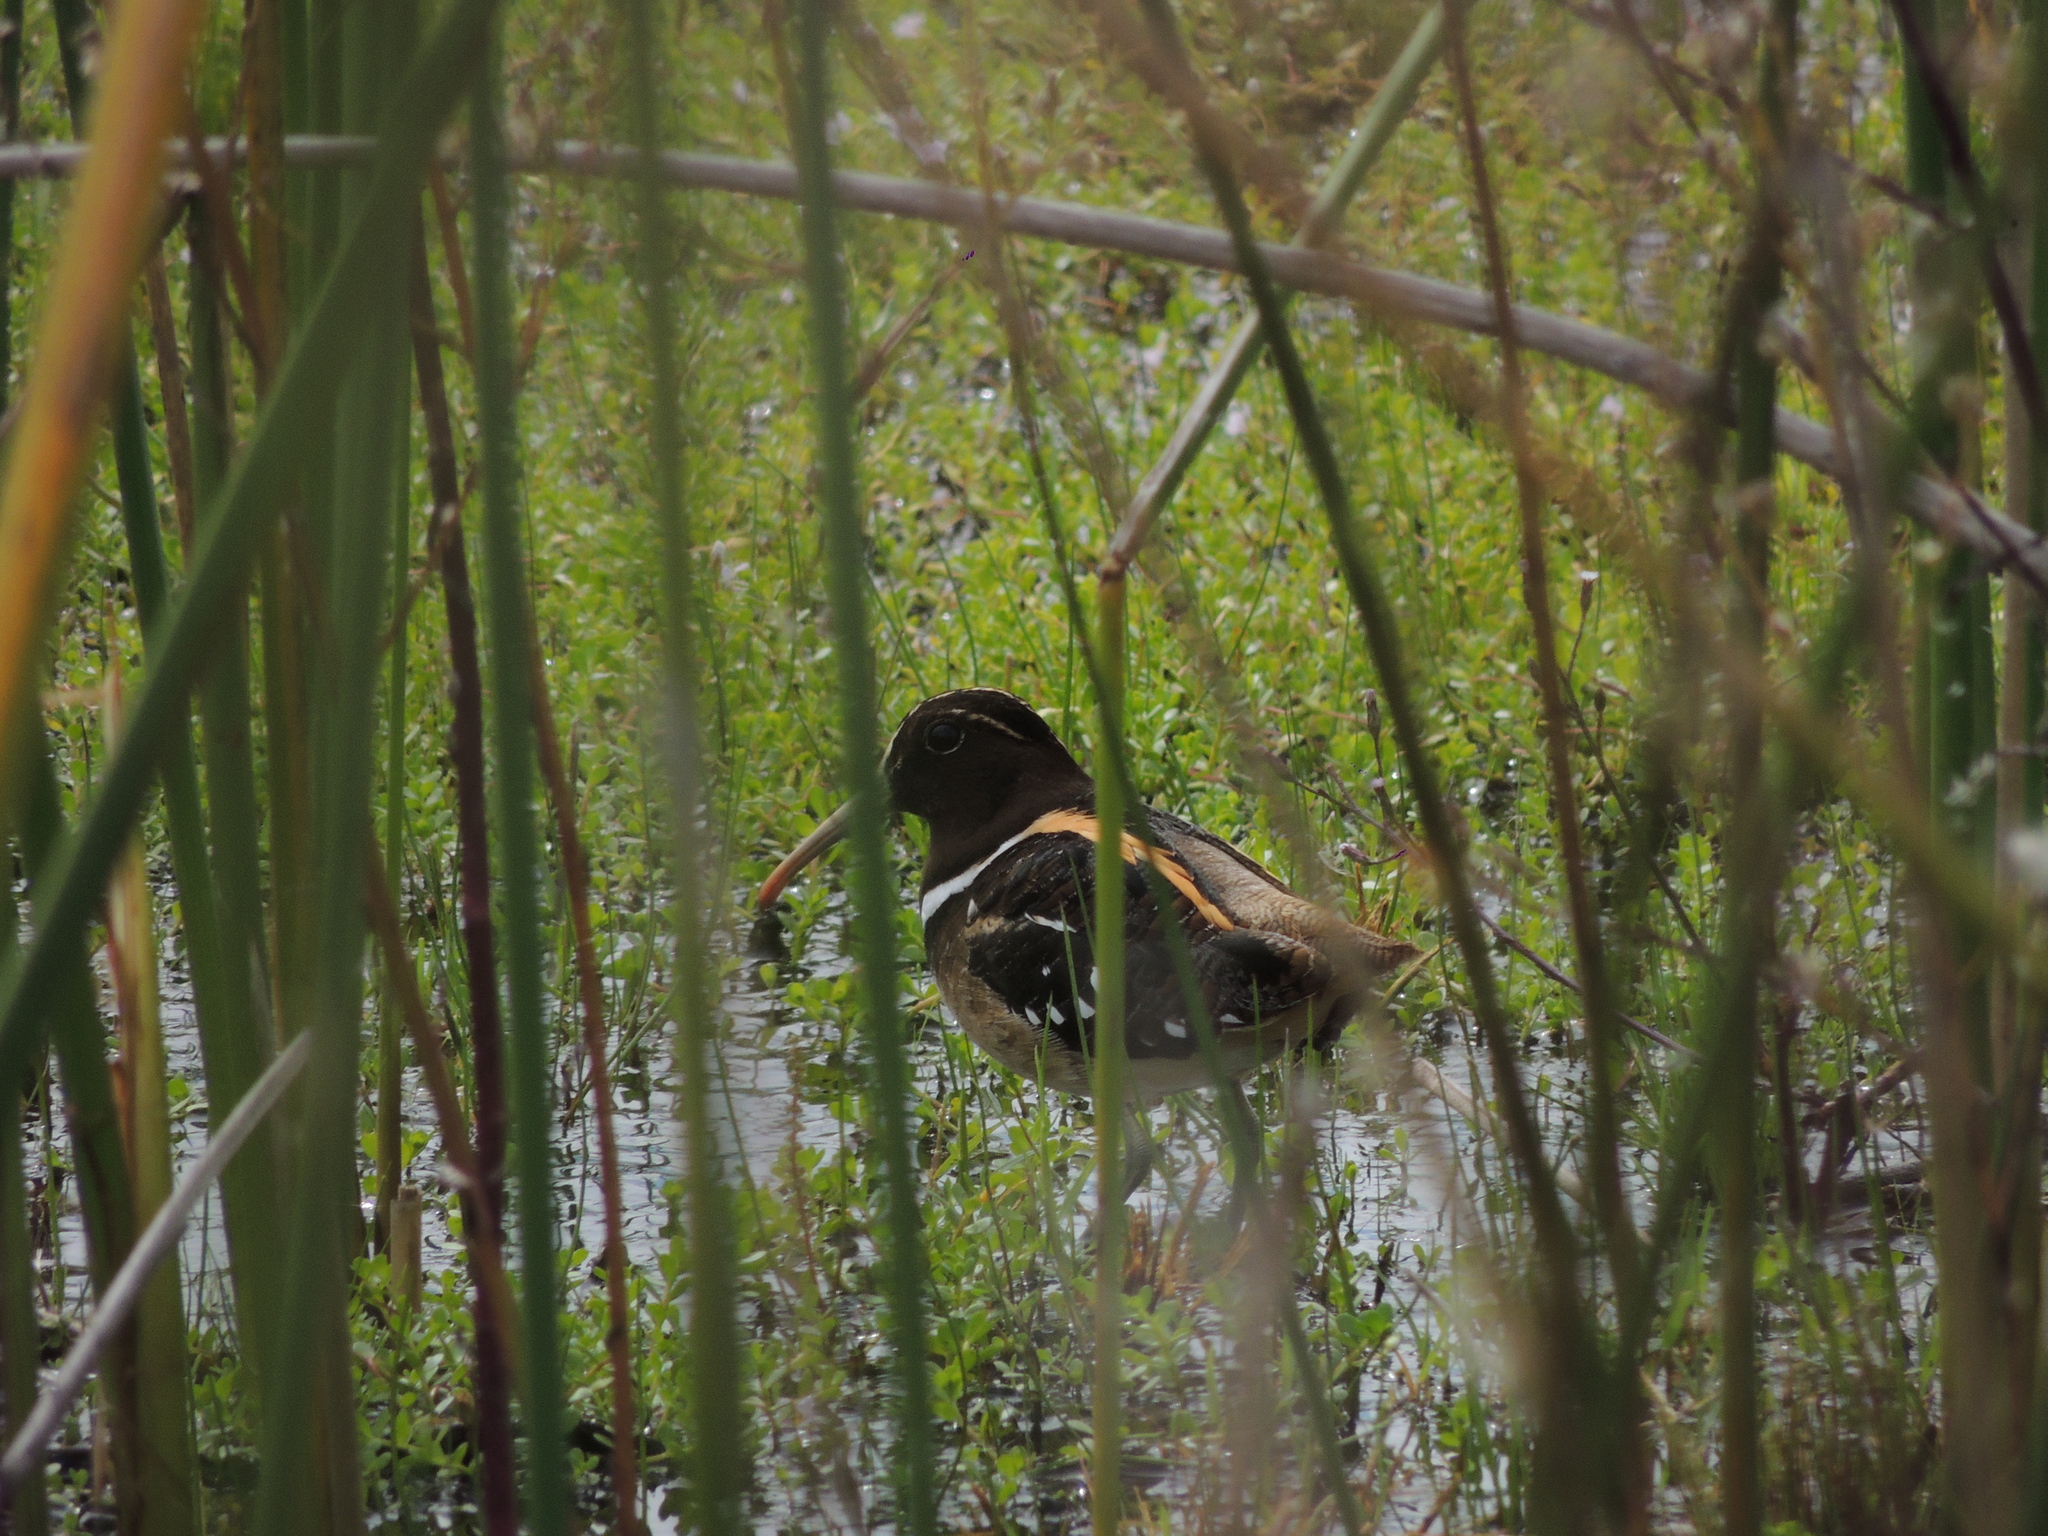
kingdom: Animalia
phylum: Chordata
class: Aves
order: Charadriiformes
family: Rostratulidae
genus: Nycticryphes
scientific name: Nycticryphes semicollaris
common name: South american painted-snipe
